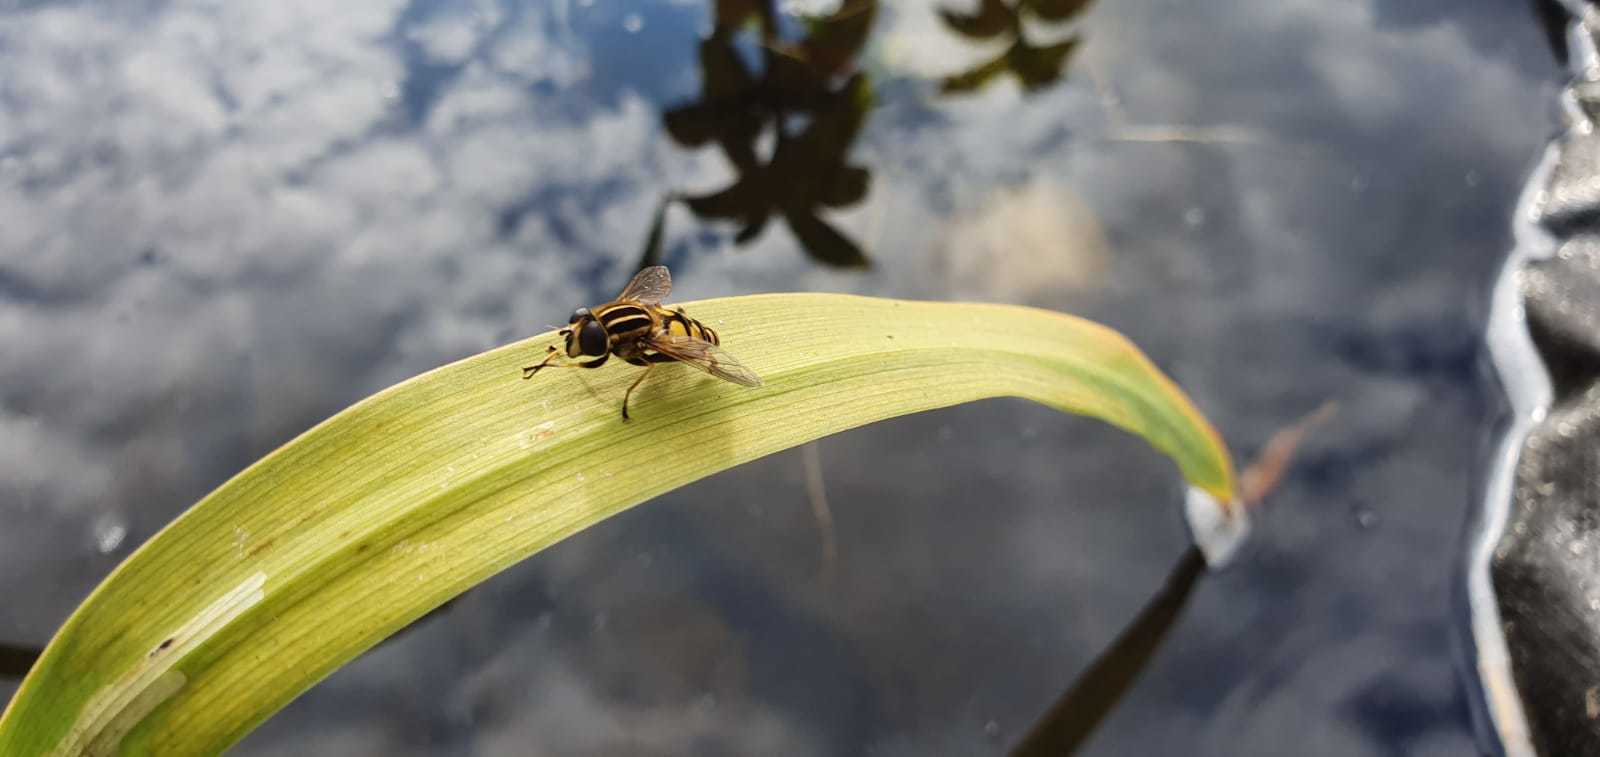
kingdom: Animalia
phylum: Arthropoda
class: Insecta
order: Diptera
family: Syrphidae
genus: Helophilus
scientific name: Helophilus pendulus
